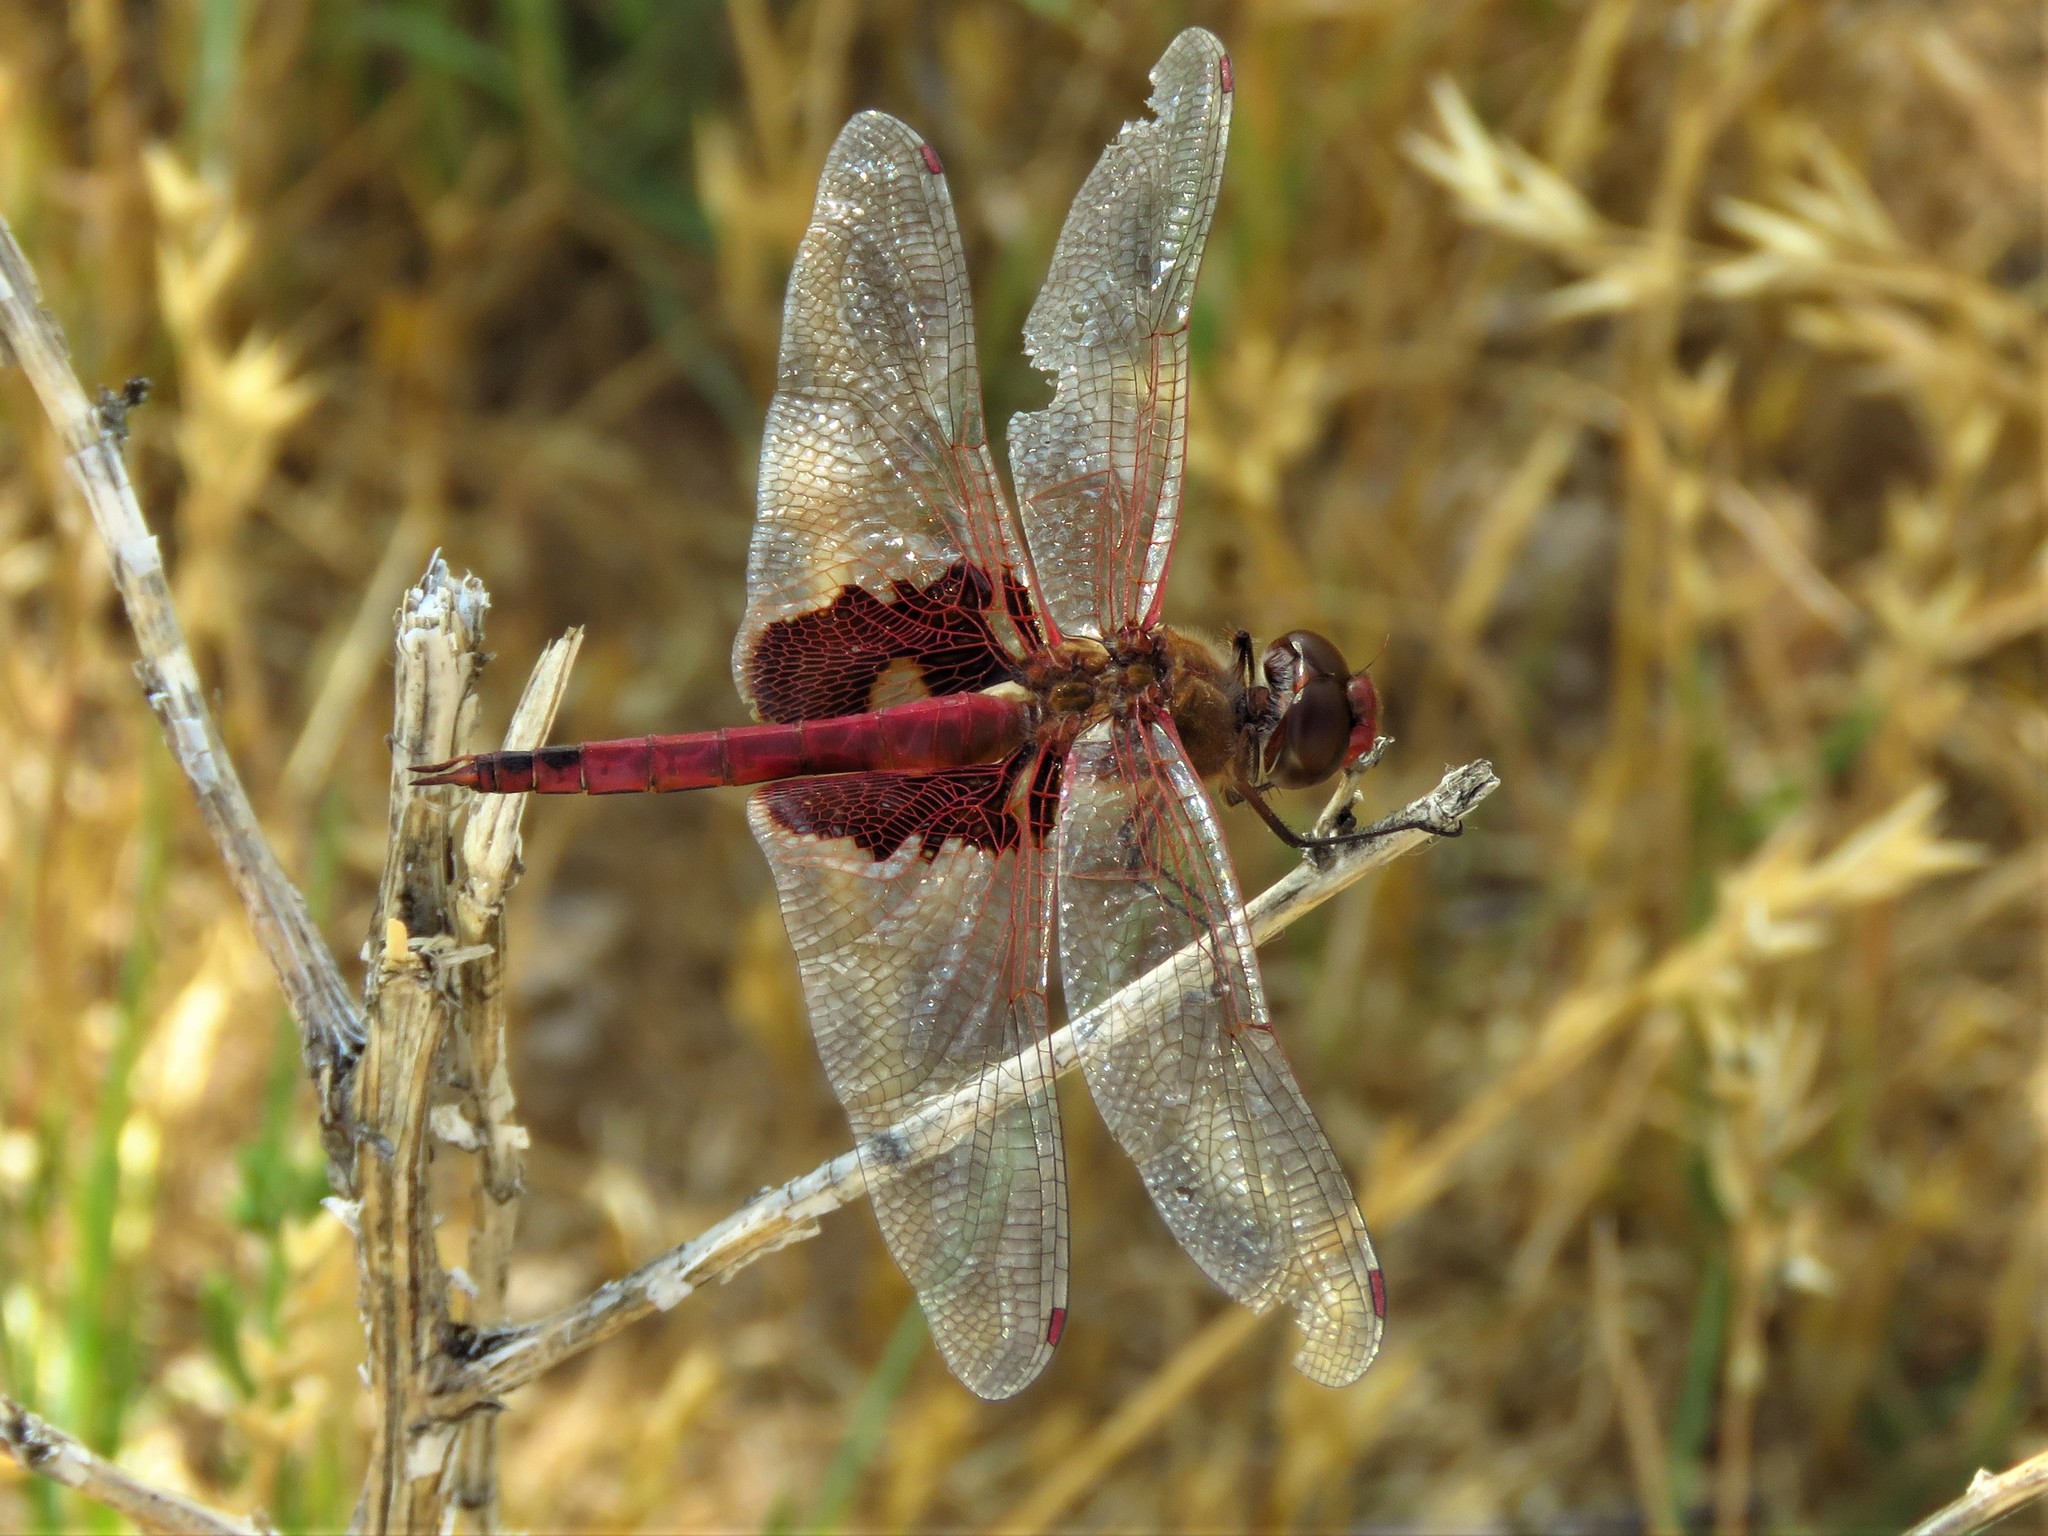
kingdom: Animalia
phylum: Arthropoda
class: Insecta
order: Odonata
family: Libellulidae
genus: Tramea
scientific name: Tramea onusta
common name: Red saddlebags
